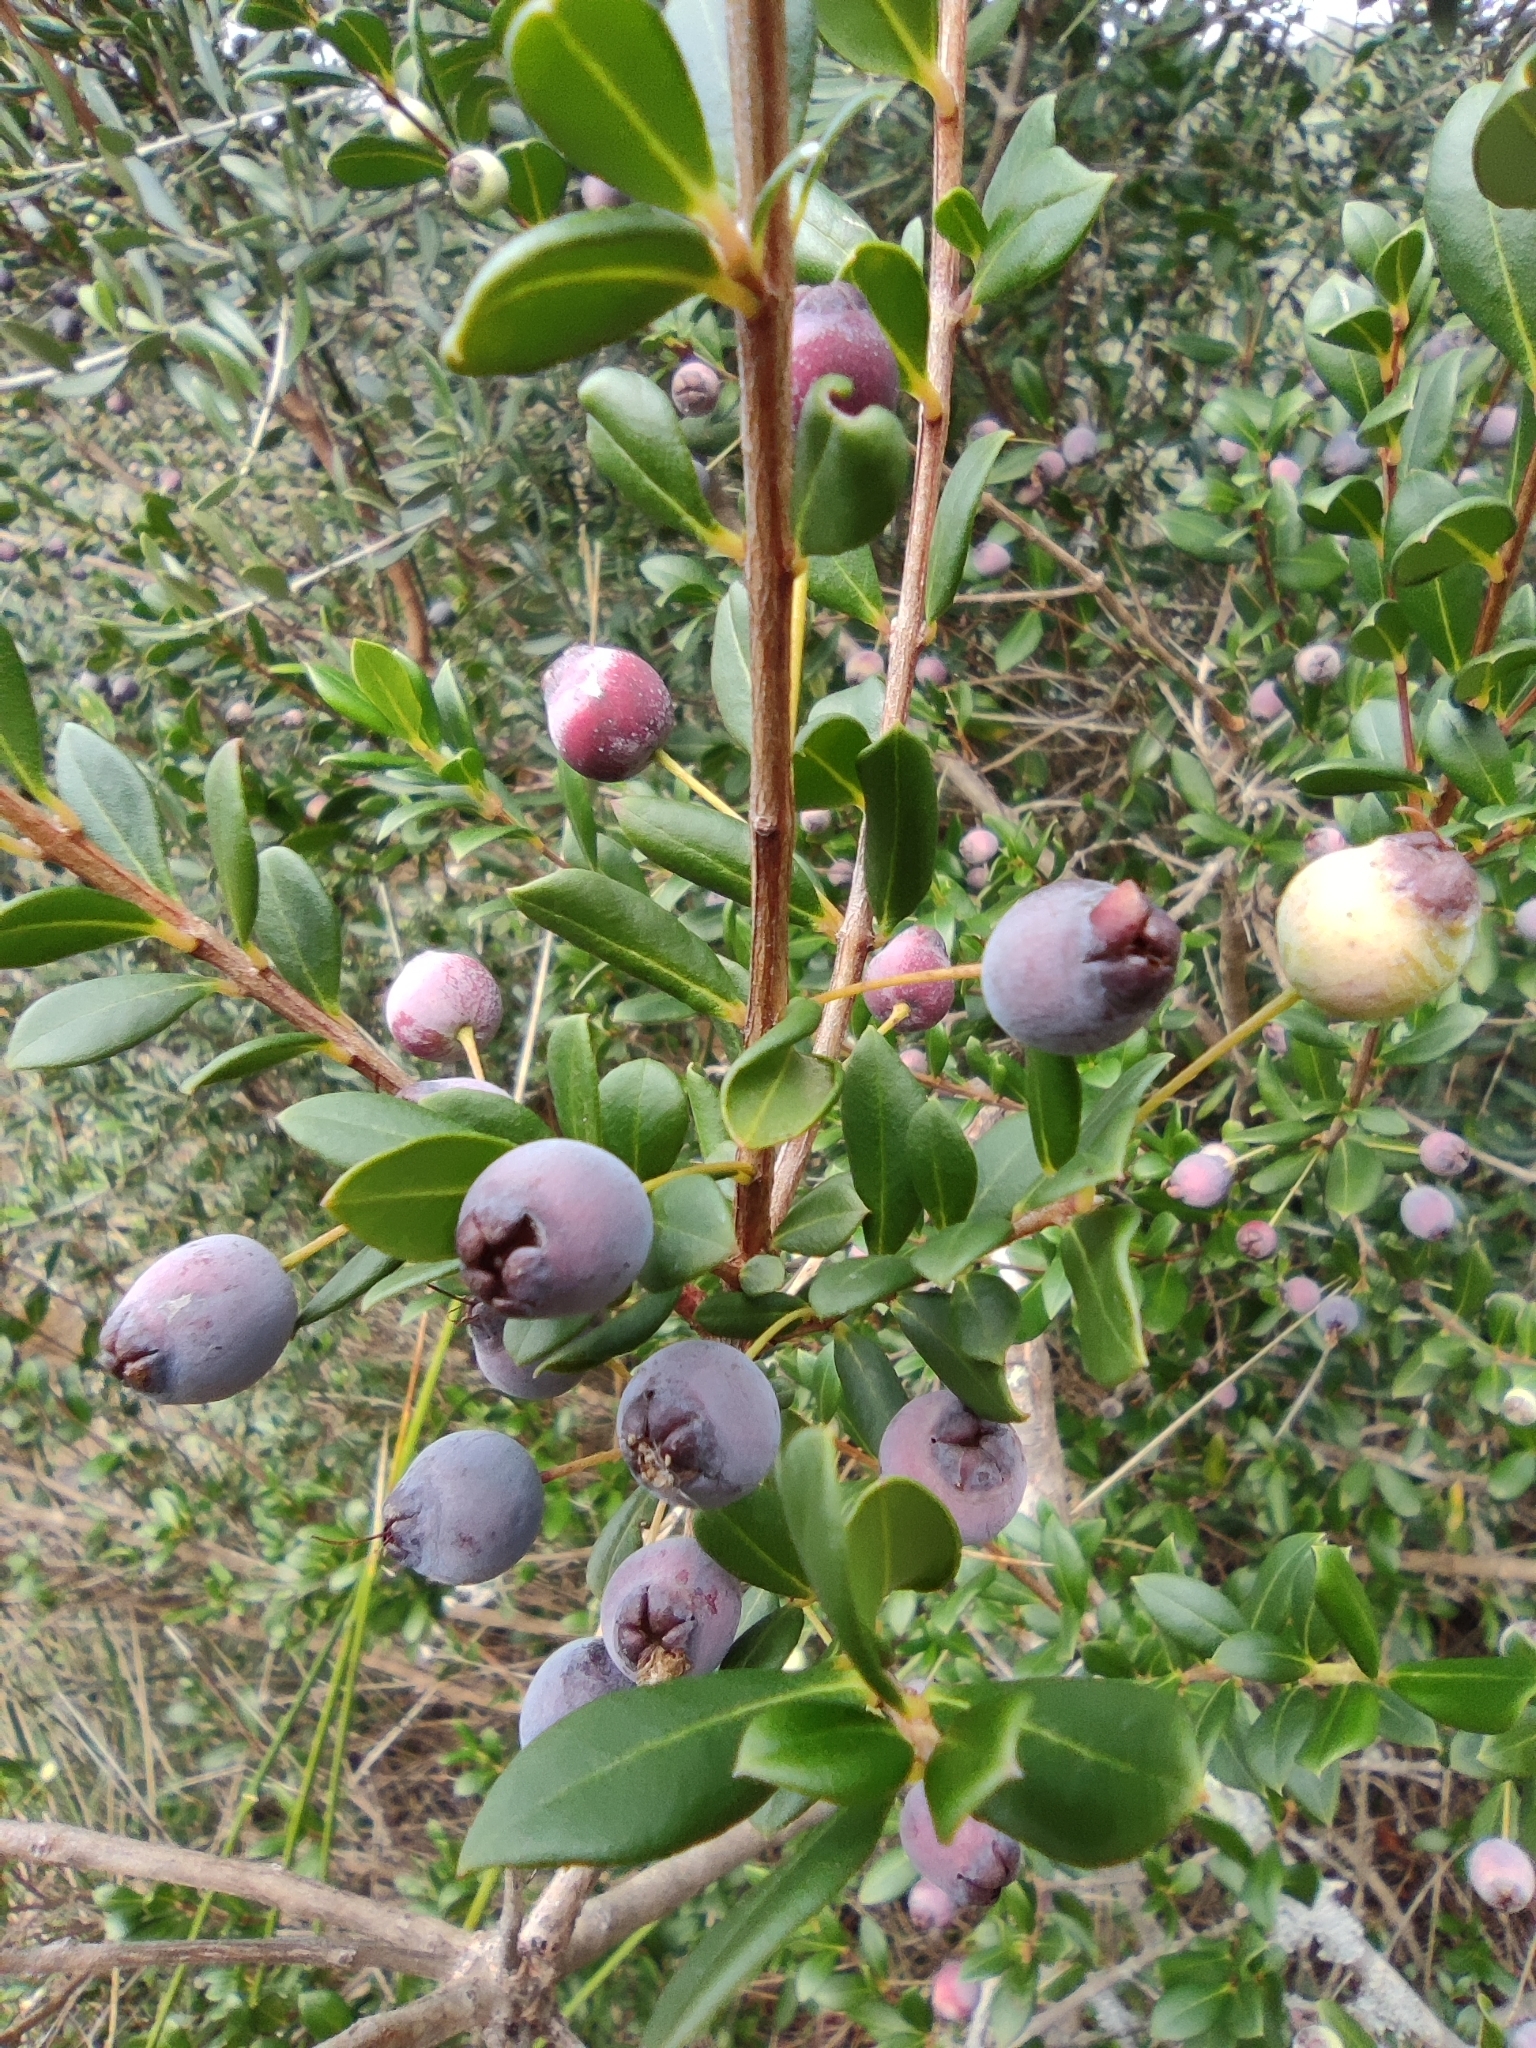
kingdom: Plantae
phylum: Tracheophyta
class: Magnoliopsida
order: Myrtales
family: Myrtaceae
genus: Myrtus
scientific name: Myrtus communis
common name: Myrtle
